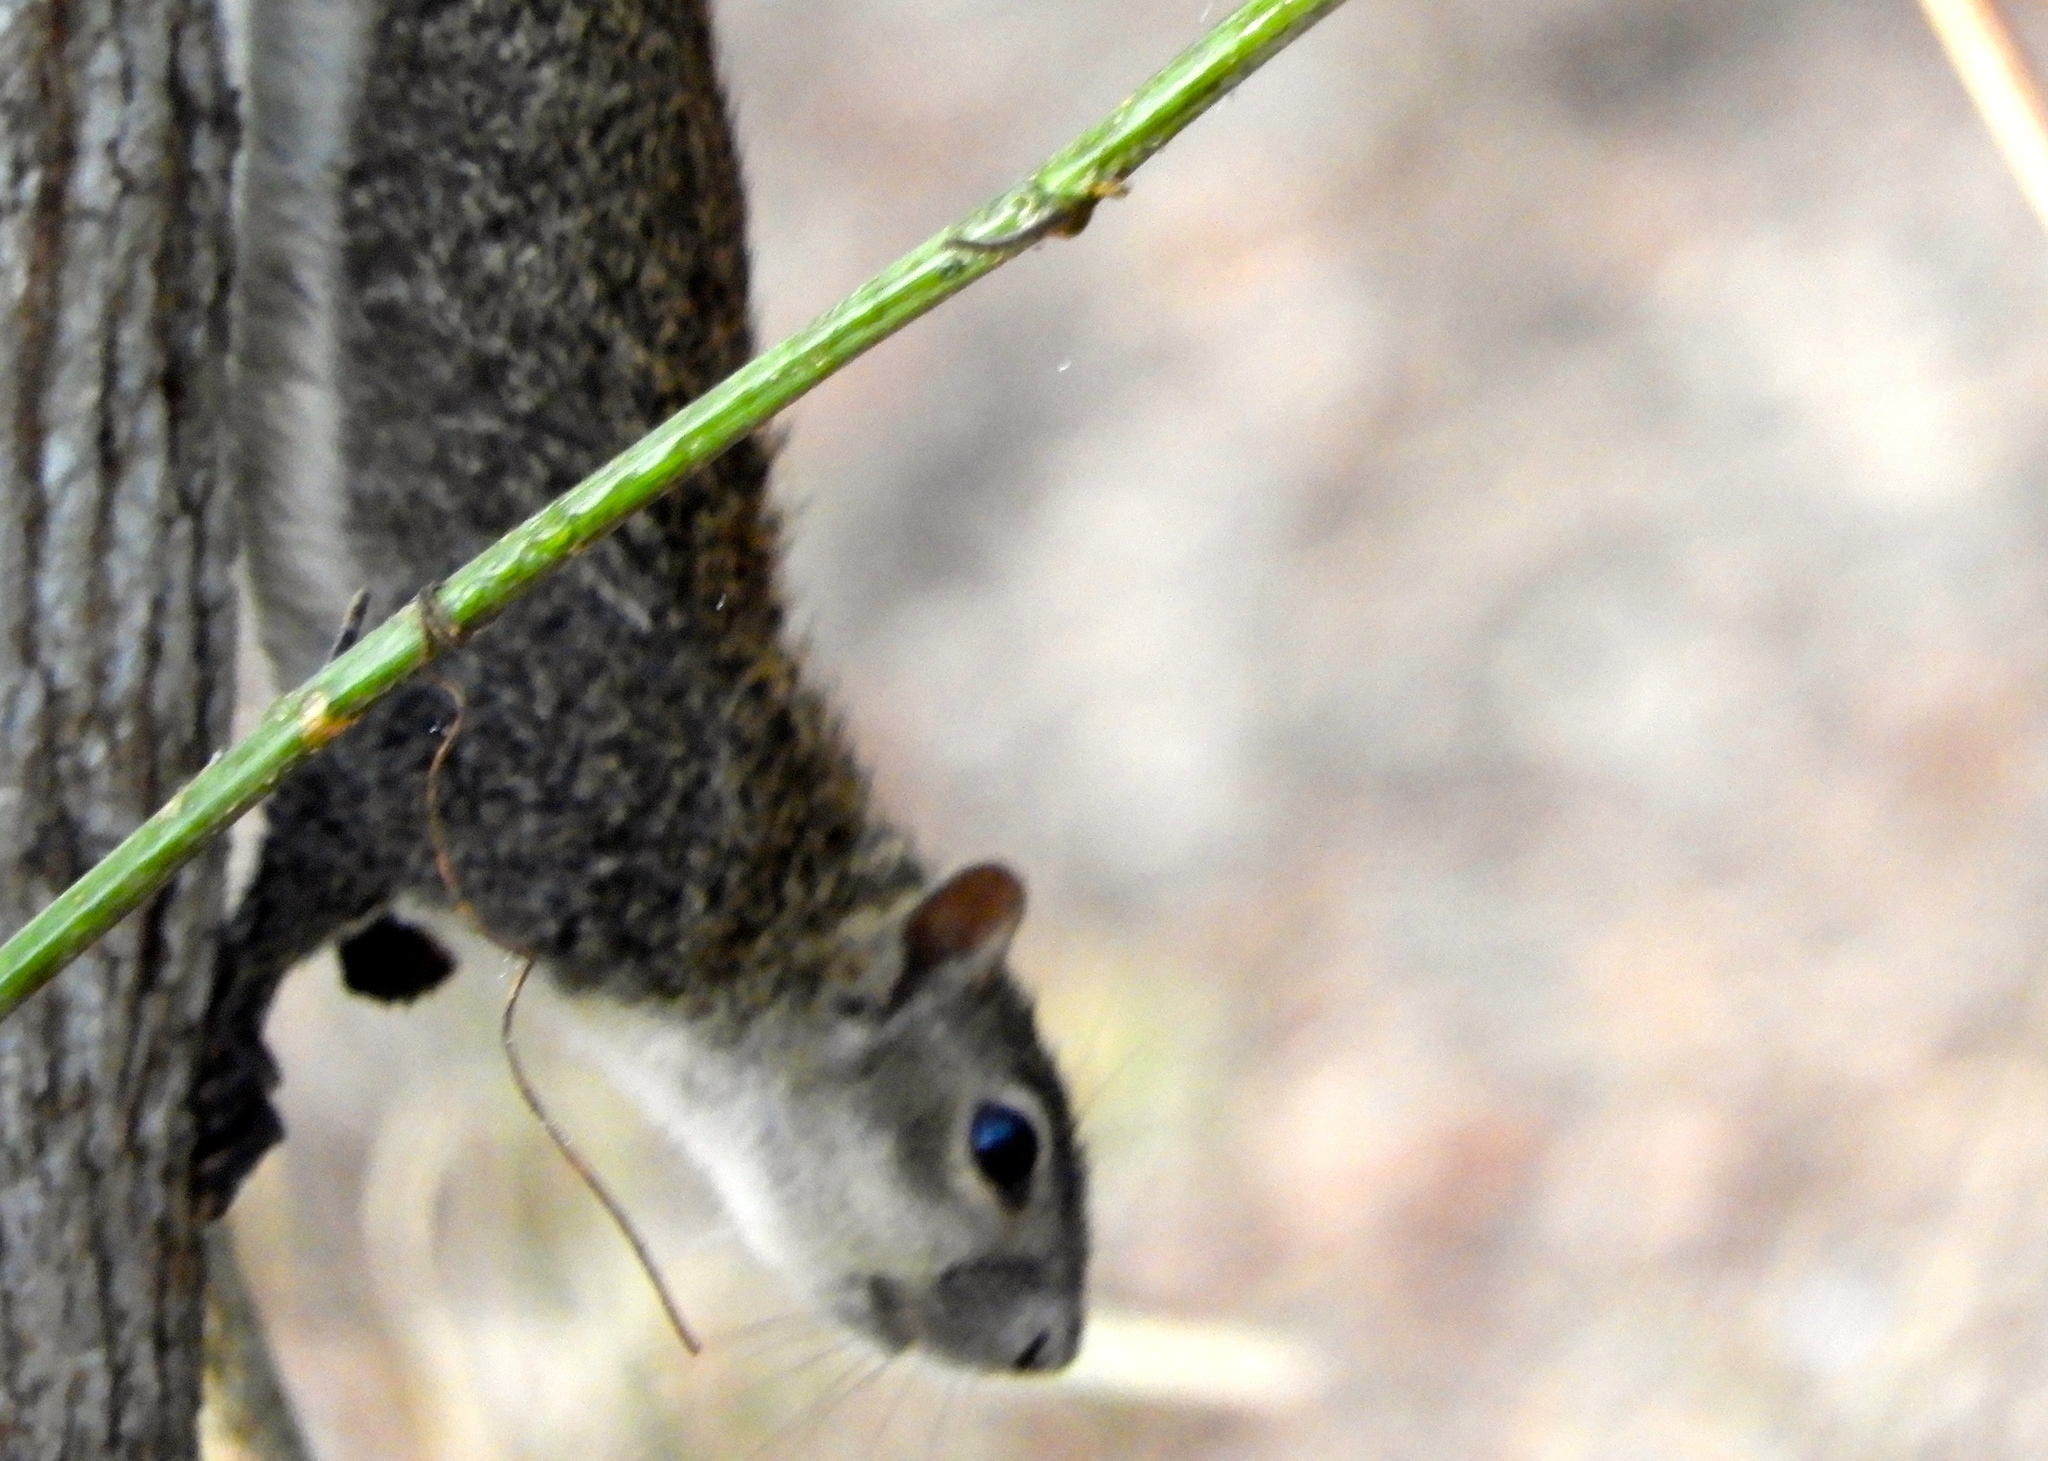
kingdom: Animalia
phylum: Chordata
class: Mammalia
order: Rodentia
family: Sciuridae
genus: Sciurus
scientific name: Sciurus colliaei
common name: Collie's squirrel
